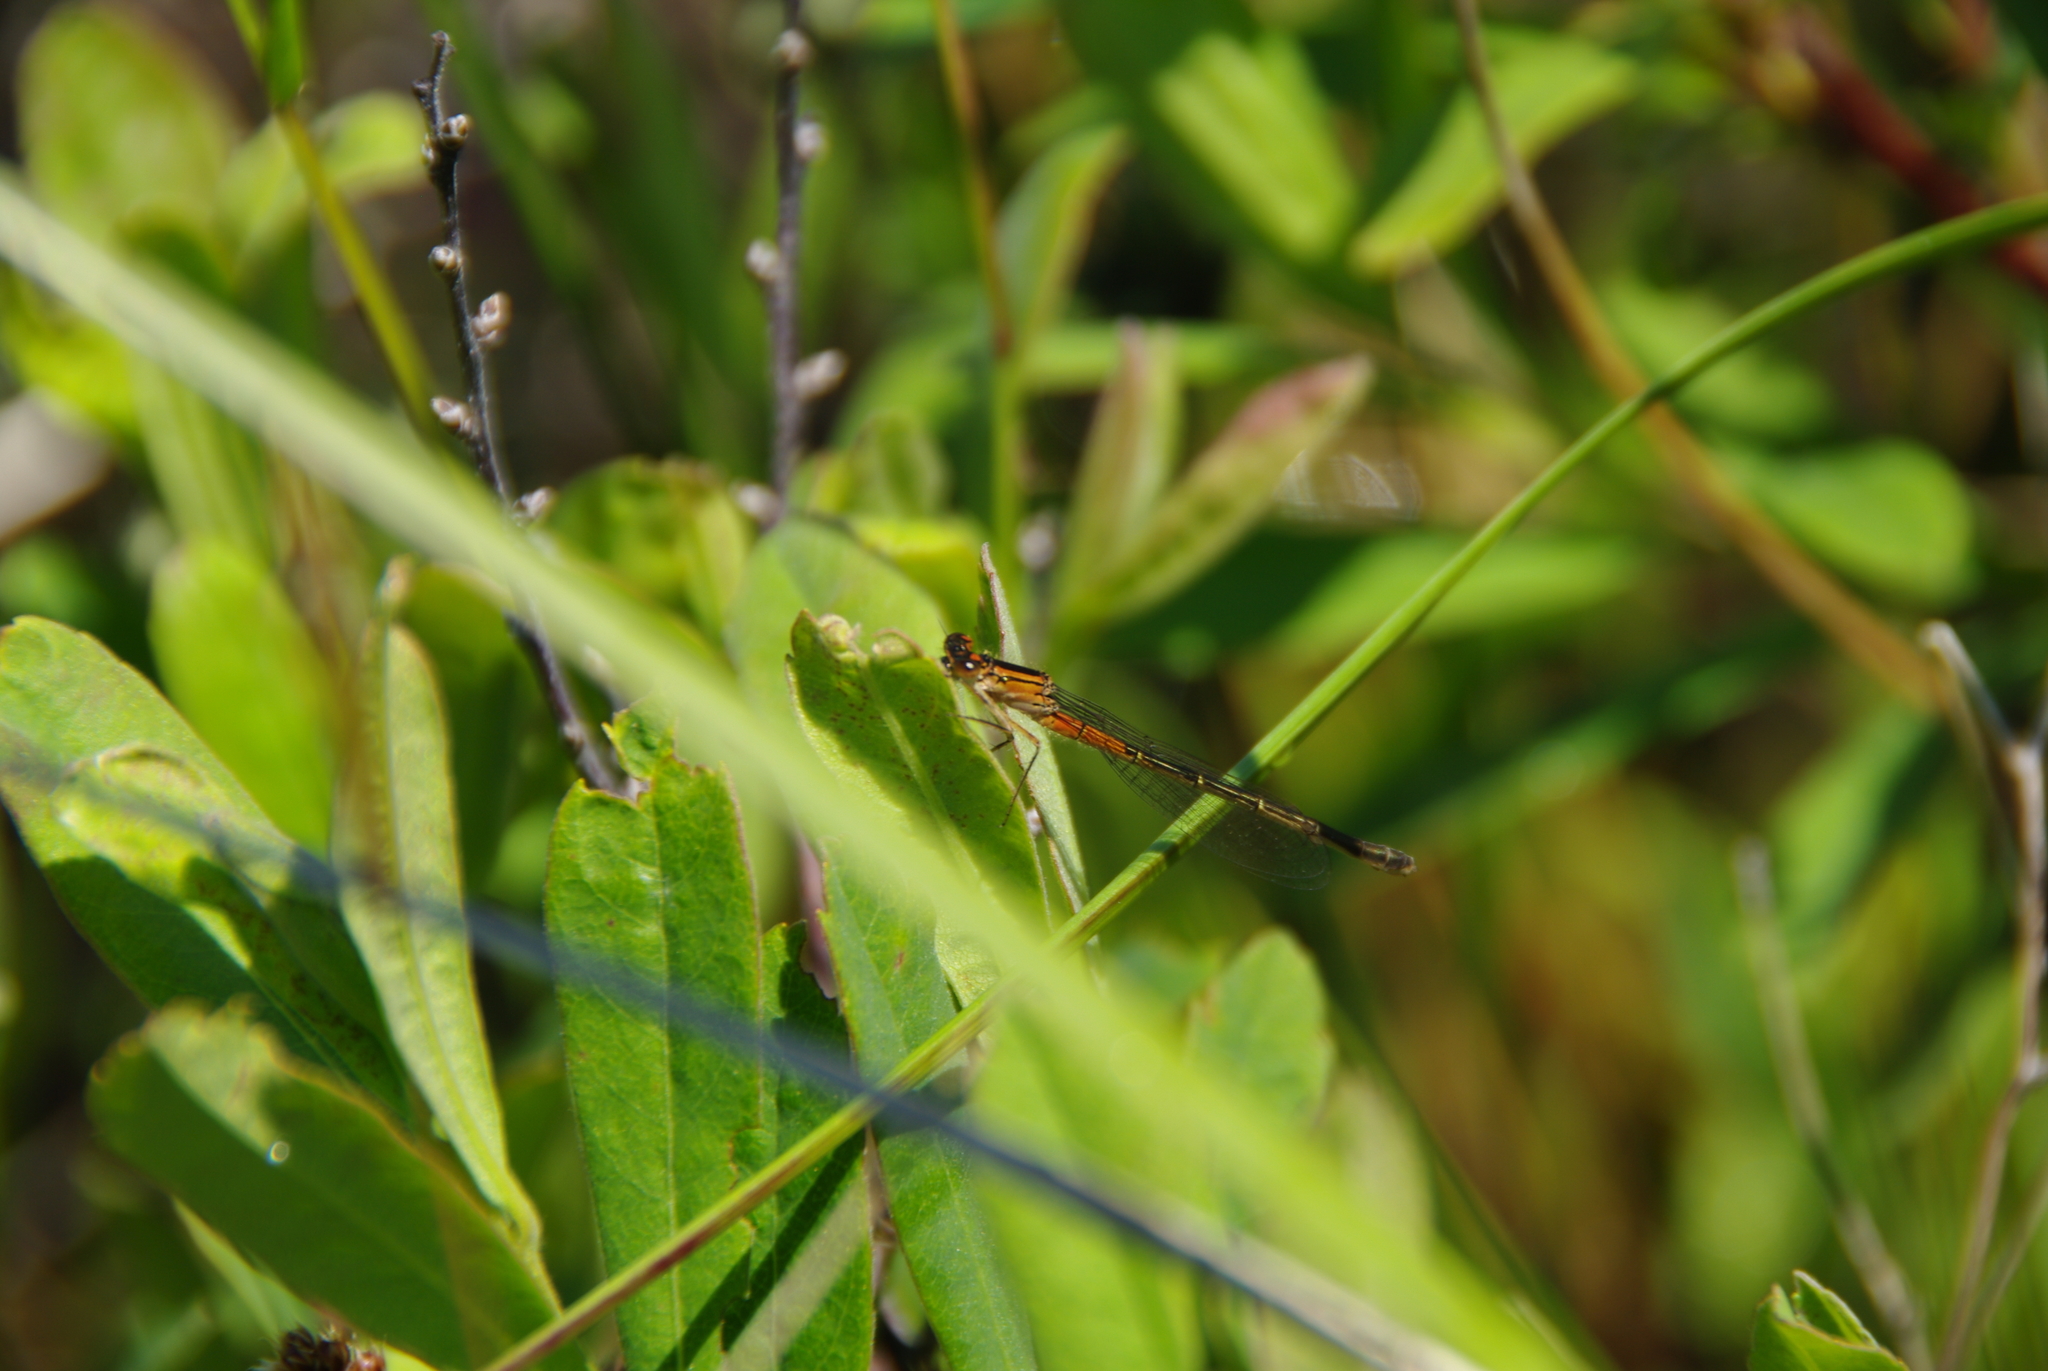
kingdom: Animalia
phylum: Arthropoda
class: Insecta
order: Odonata
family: Coenagrionidae
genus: Ischnura
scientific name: Ischnura verticalis
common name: Eastern forktail
